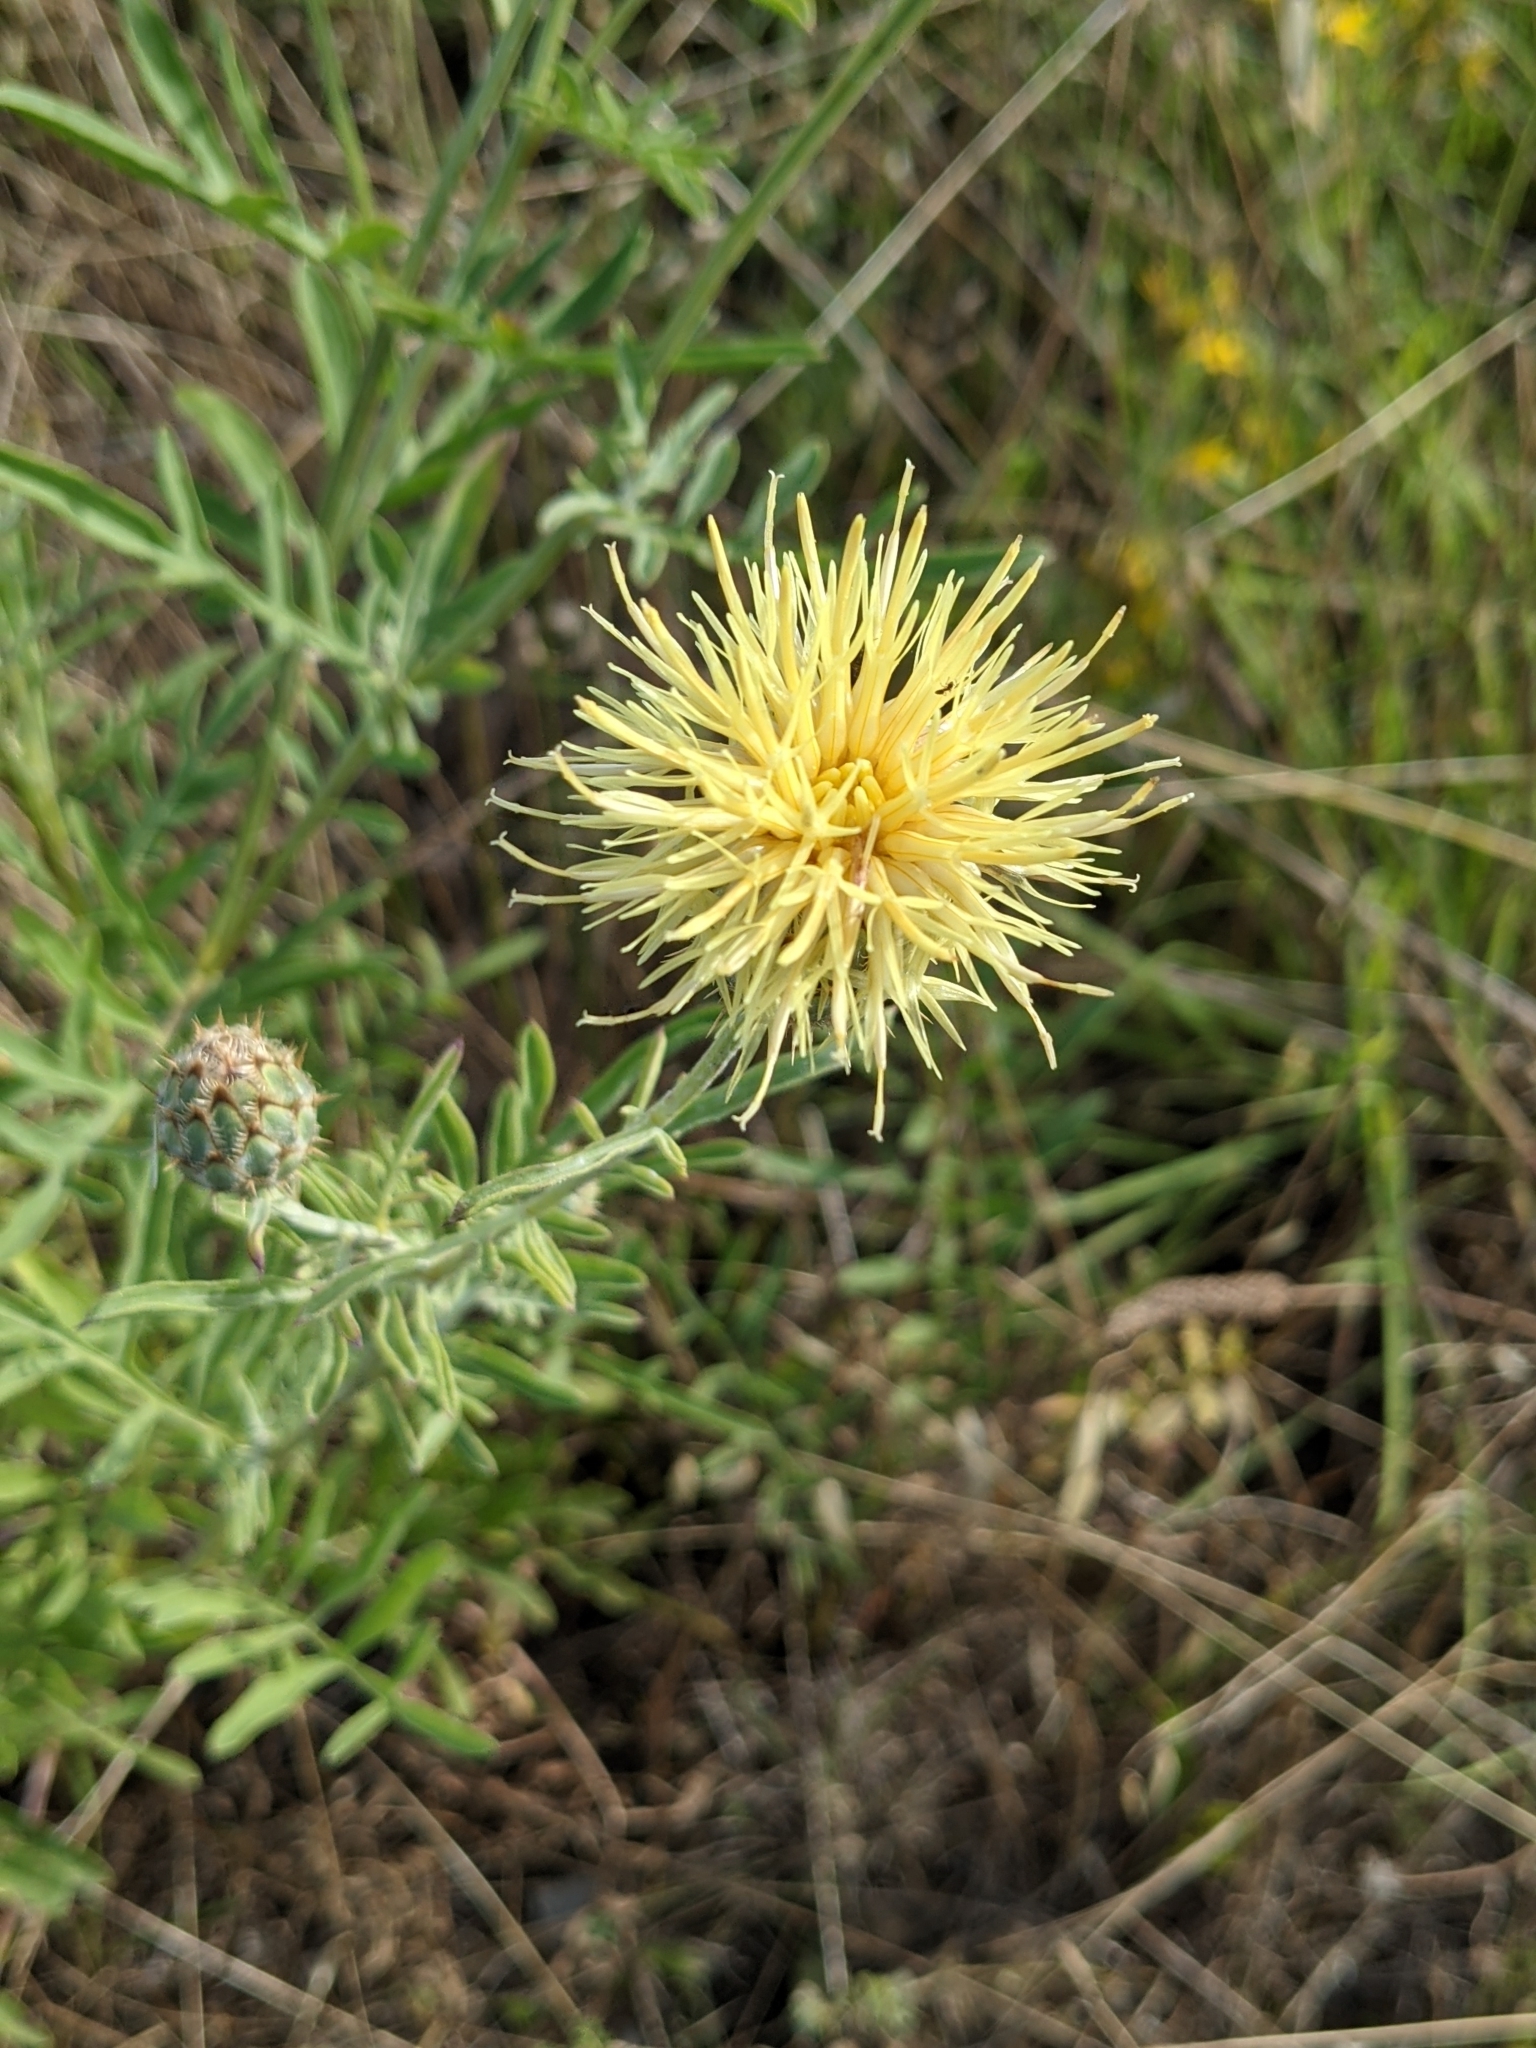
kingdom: Plantae
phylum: Tracheophyta
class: Magnoliopsida
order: Asterales
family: Asteraceae
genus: Centaurea
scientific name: Centaurea collina
